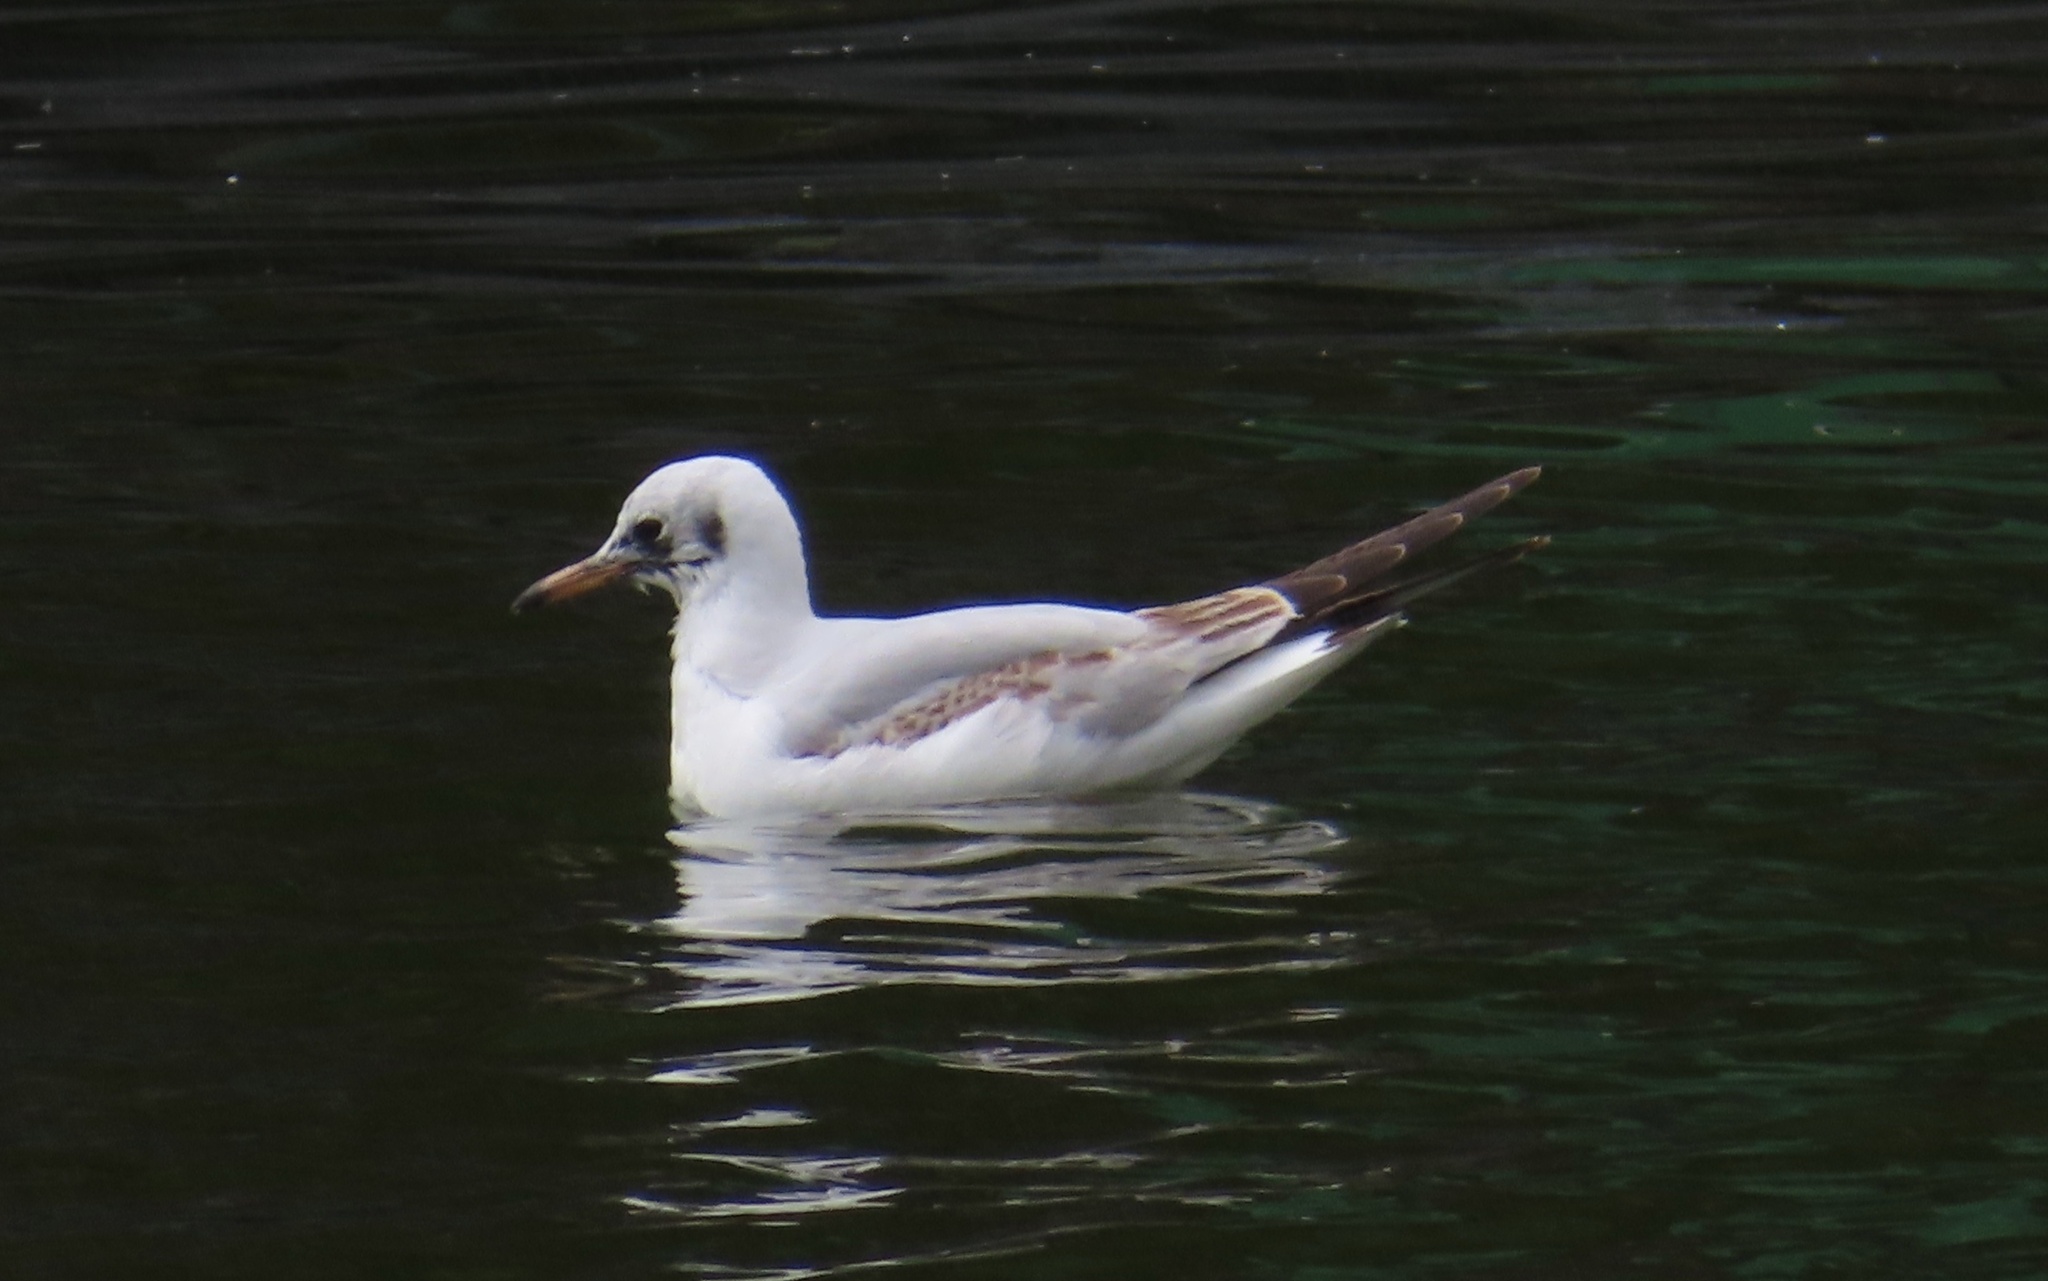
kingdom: Animalia
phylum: Chordata
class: Aves
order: Charadriiformes
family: Laridae
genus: Chroicocephalus
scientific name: Chroicocephalus ridibundus
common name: Black-headed gull
